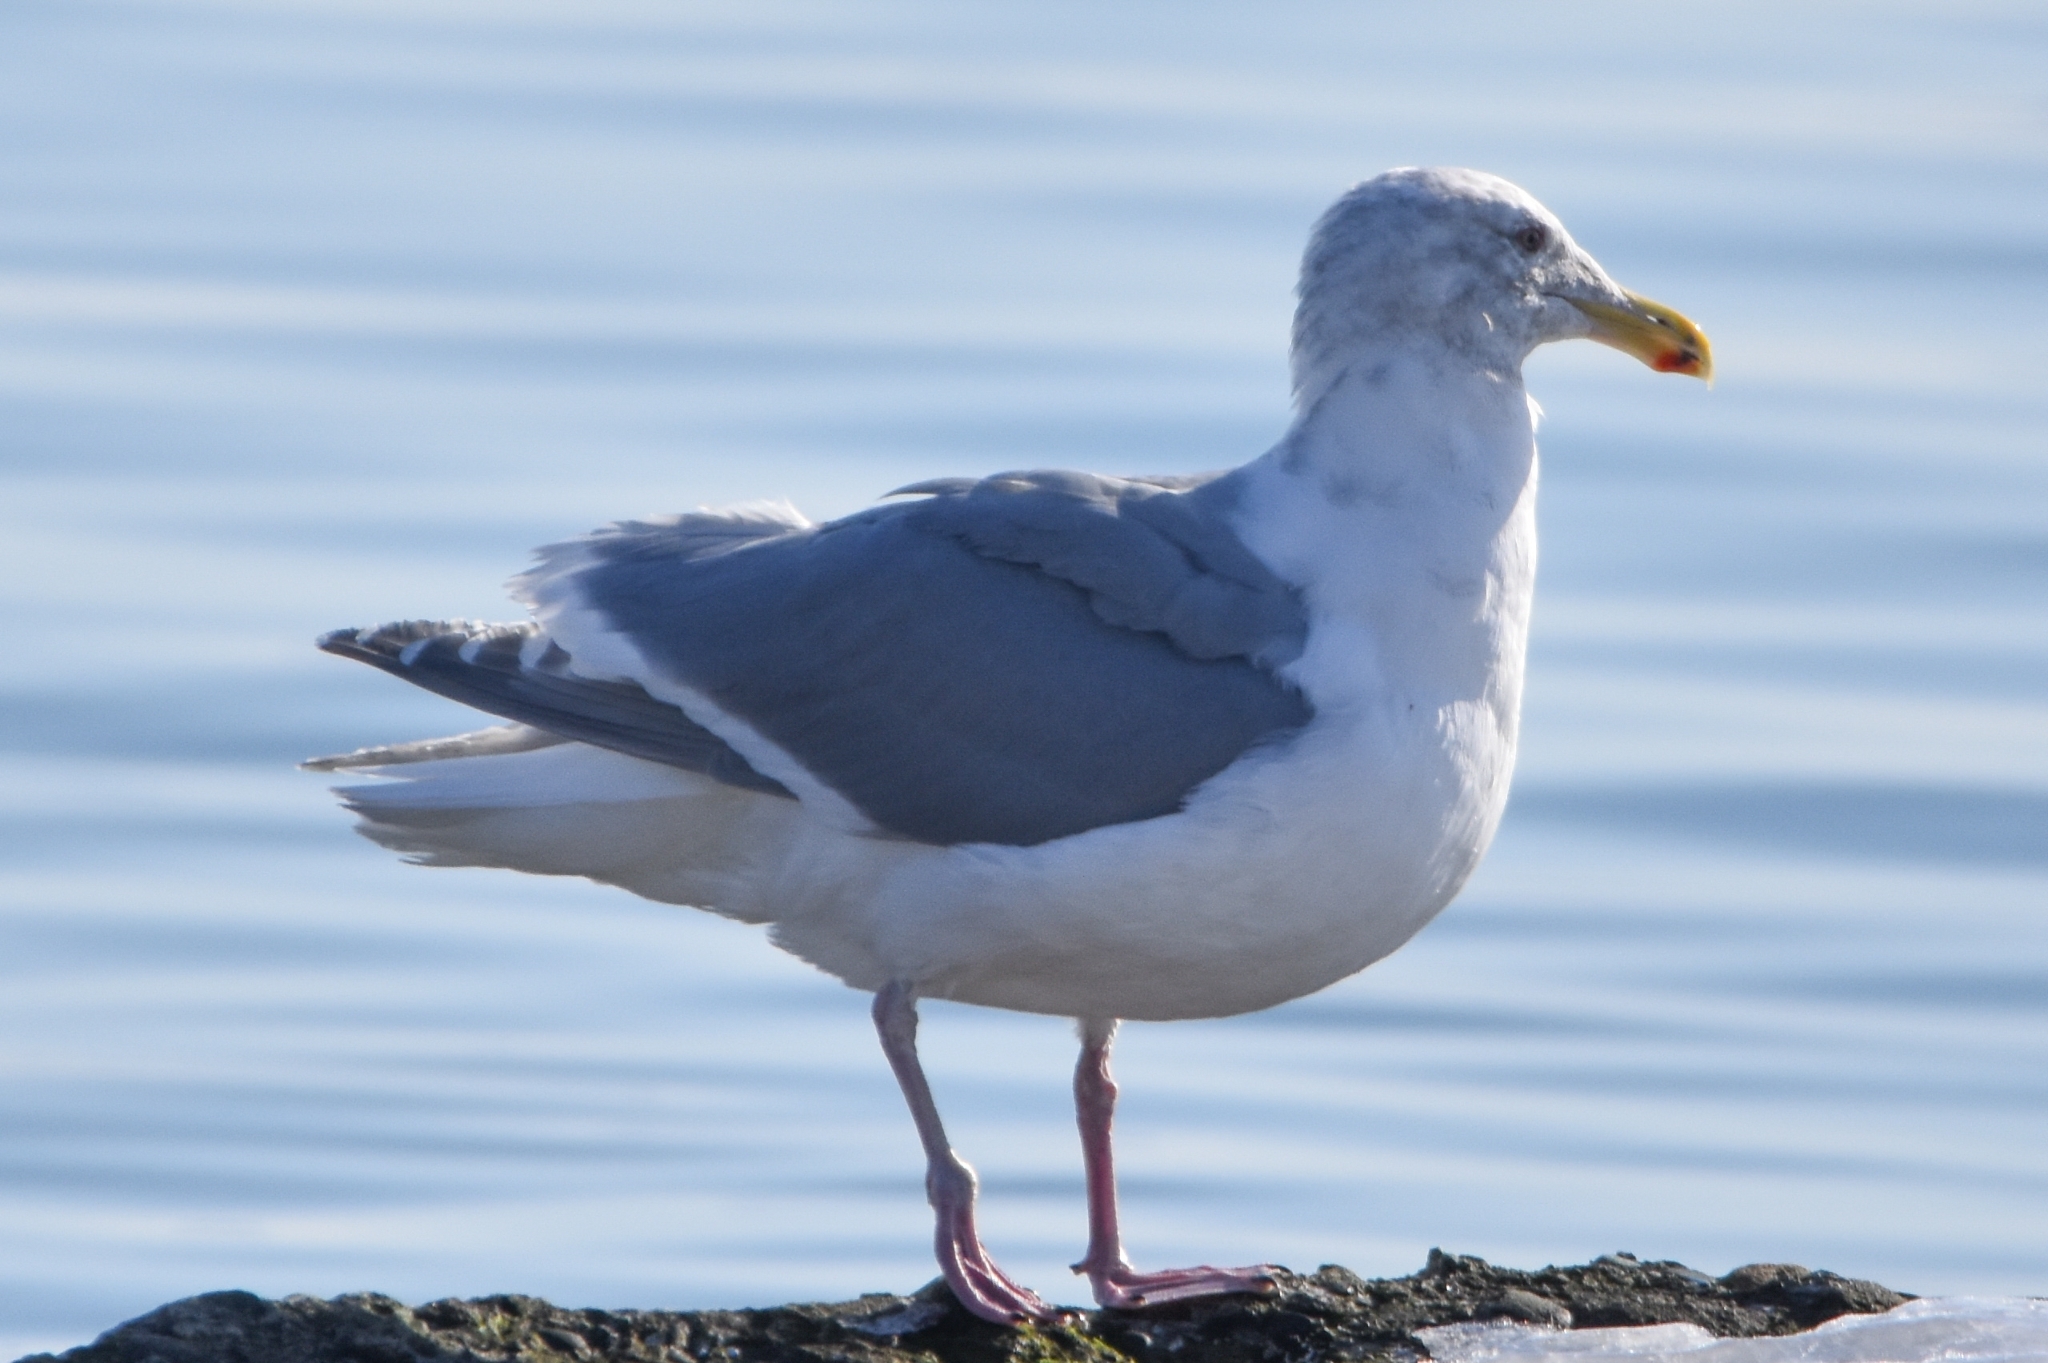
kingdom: Animalia
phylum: Chordata
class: Aves
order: Charadriiformes
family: Laridae
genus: Larus
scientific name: Larus glaucescens
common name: Glaucous-winged gull
